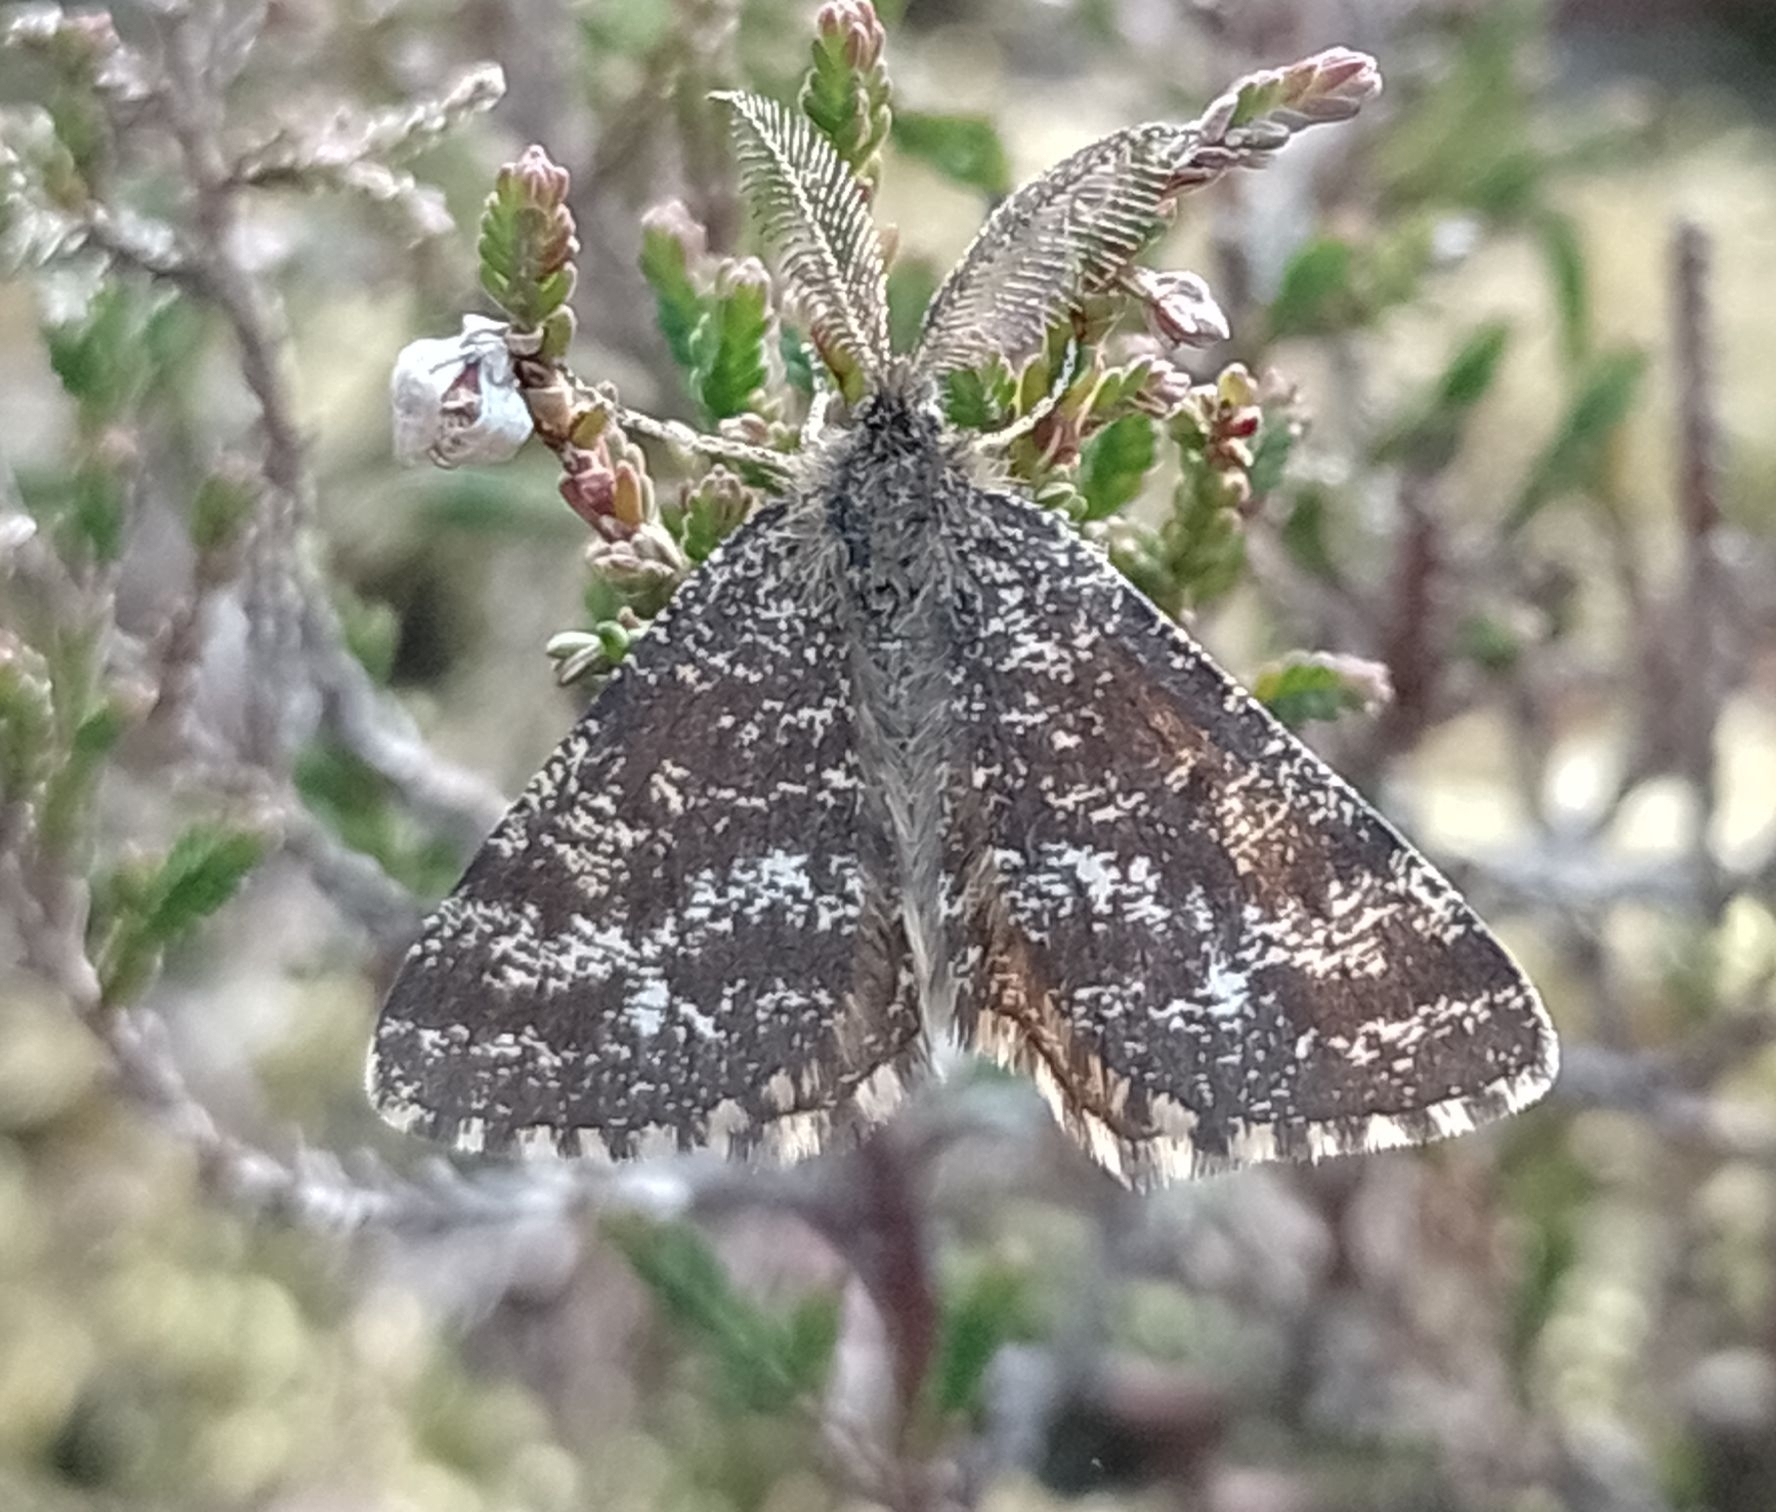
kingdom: Animalia
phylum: Arthropoda
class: Insecta
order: Lepidoptera
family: Geometridae
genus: Ematurga
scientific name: Ematurga atomaria
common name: Common heath
